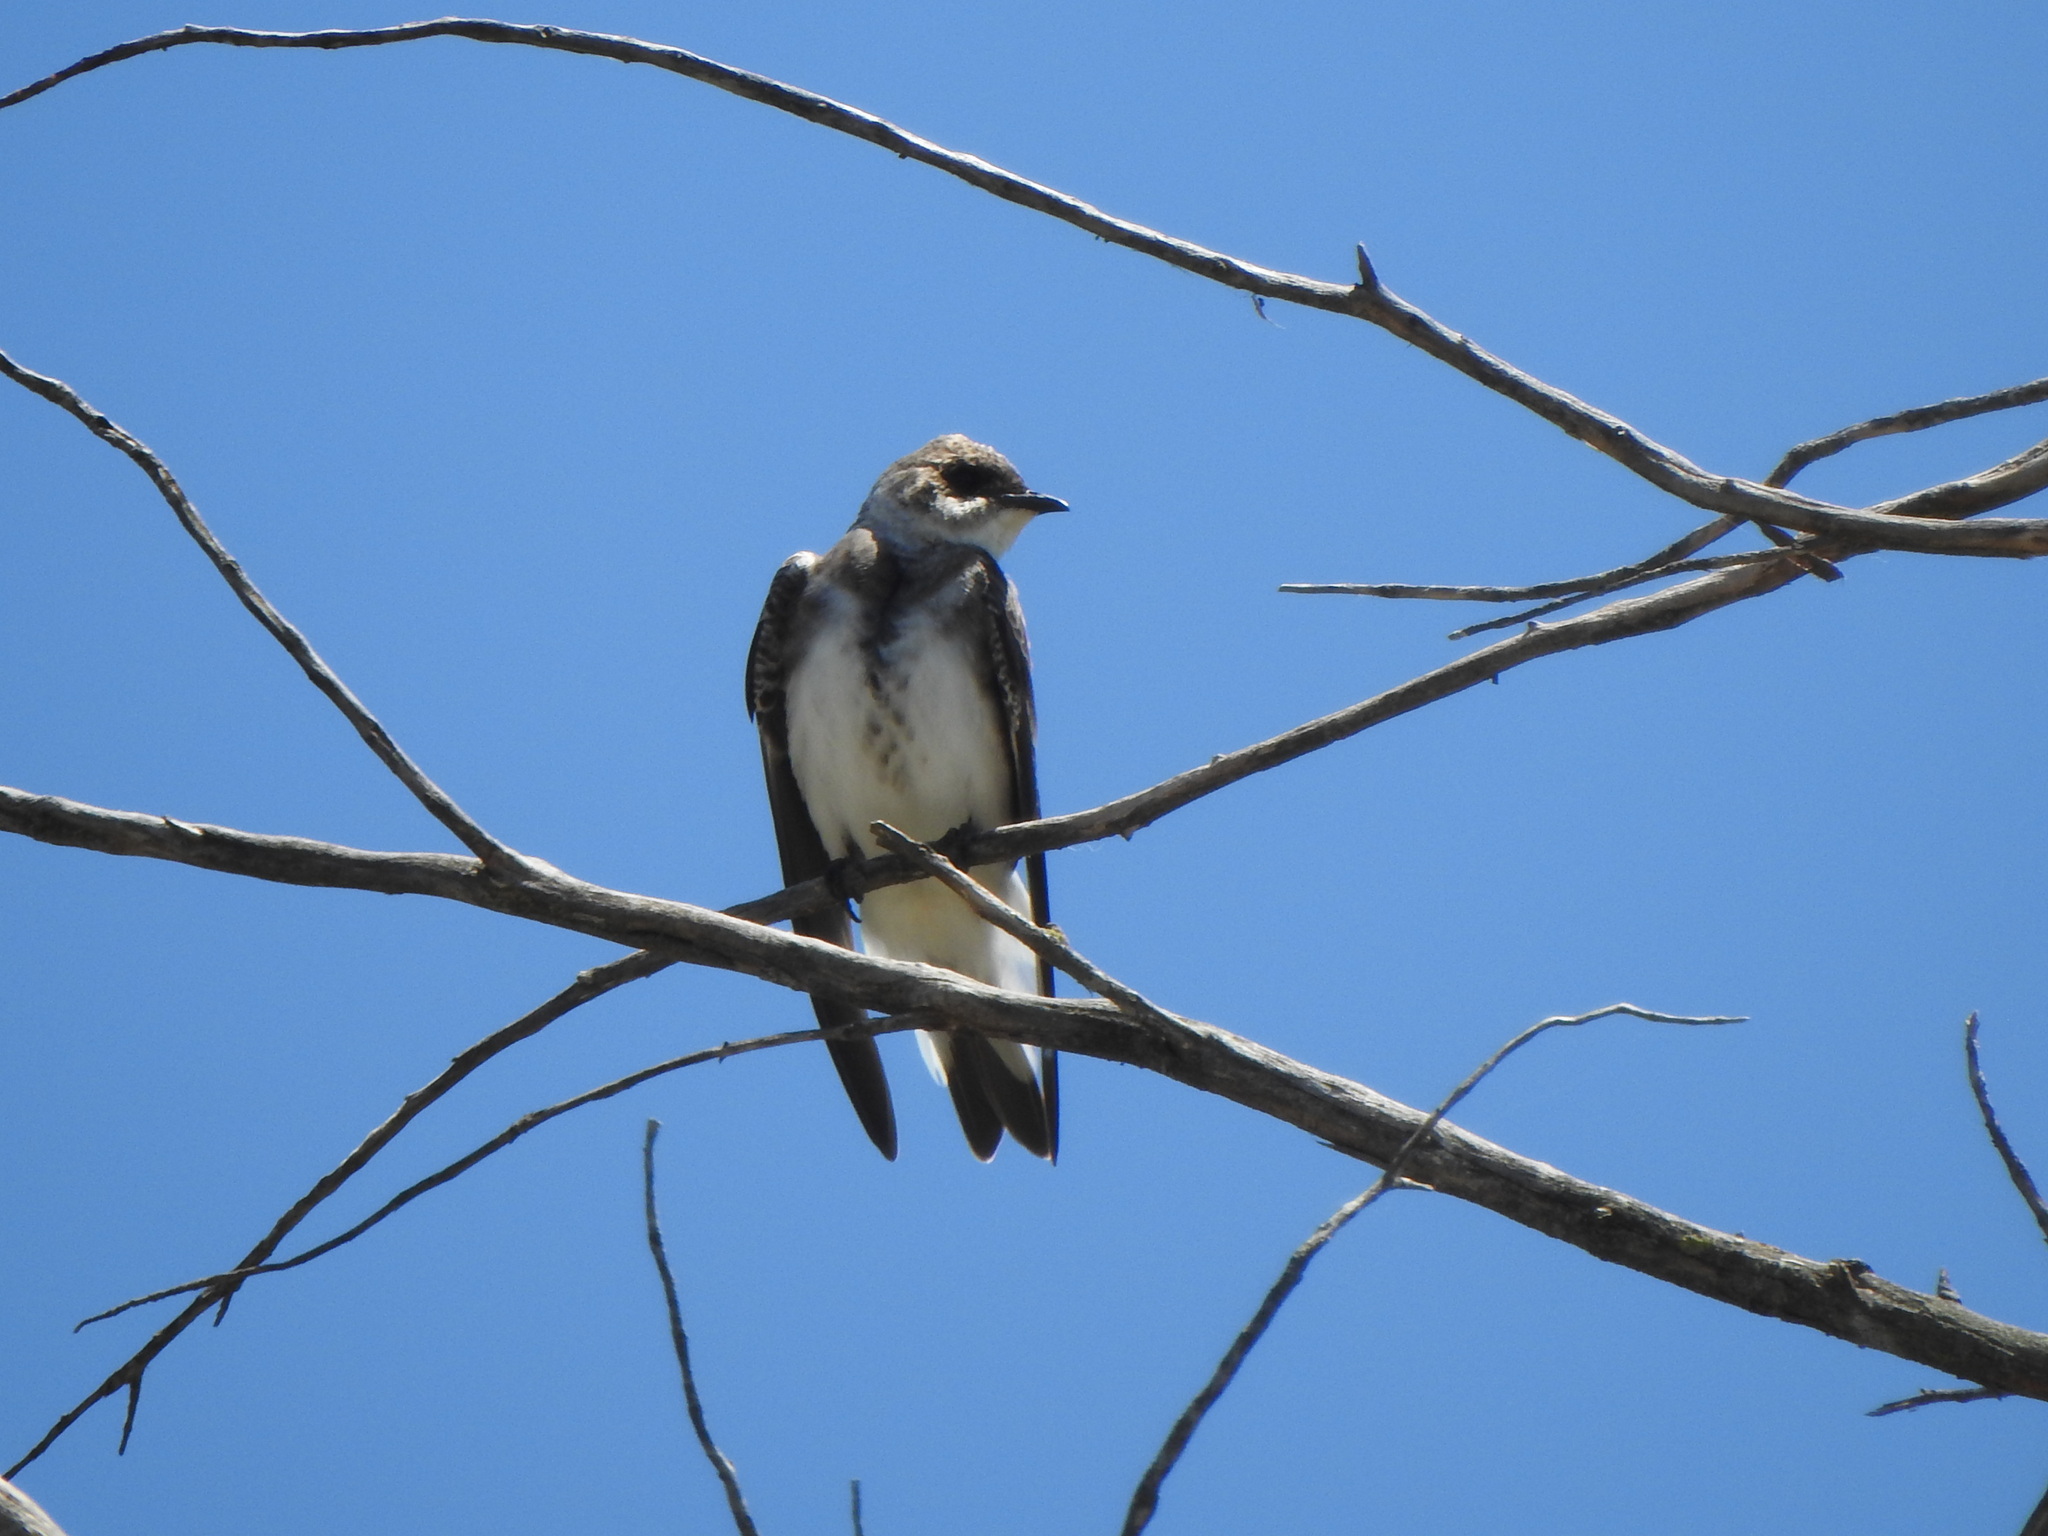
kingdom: Animalia
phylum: Chordata
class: Aves
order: Passeriformes
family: Hirundinidae
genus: Progne
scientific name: Progne tapera
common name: Brown-chested martin
